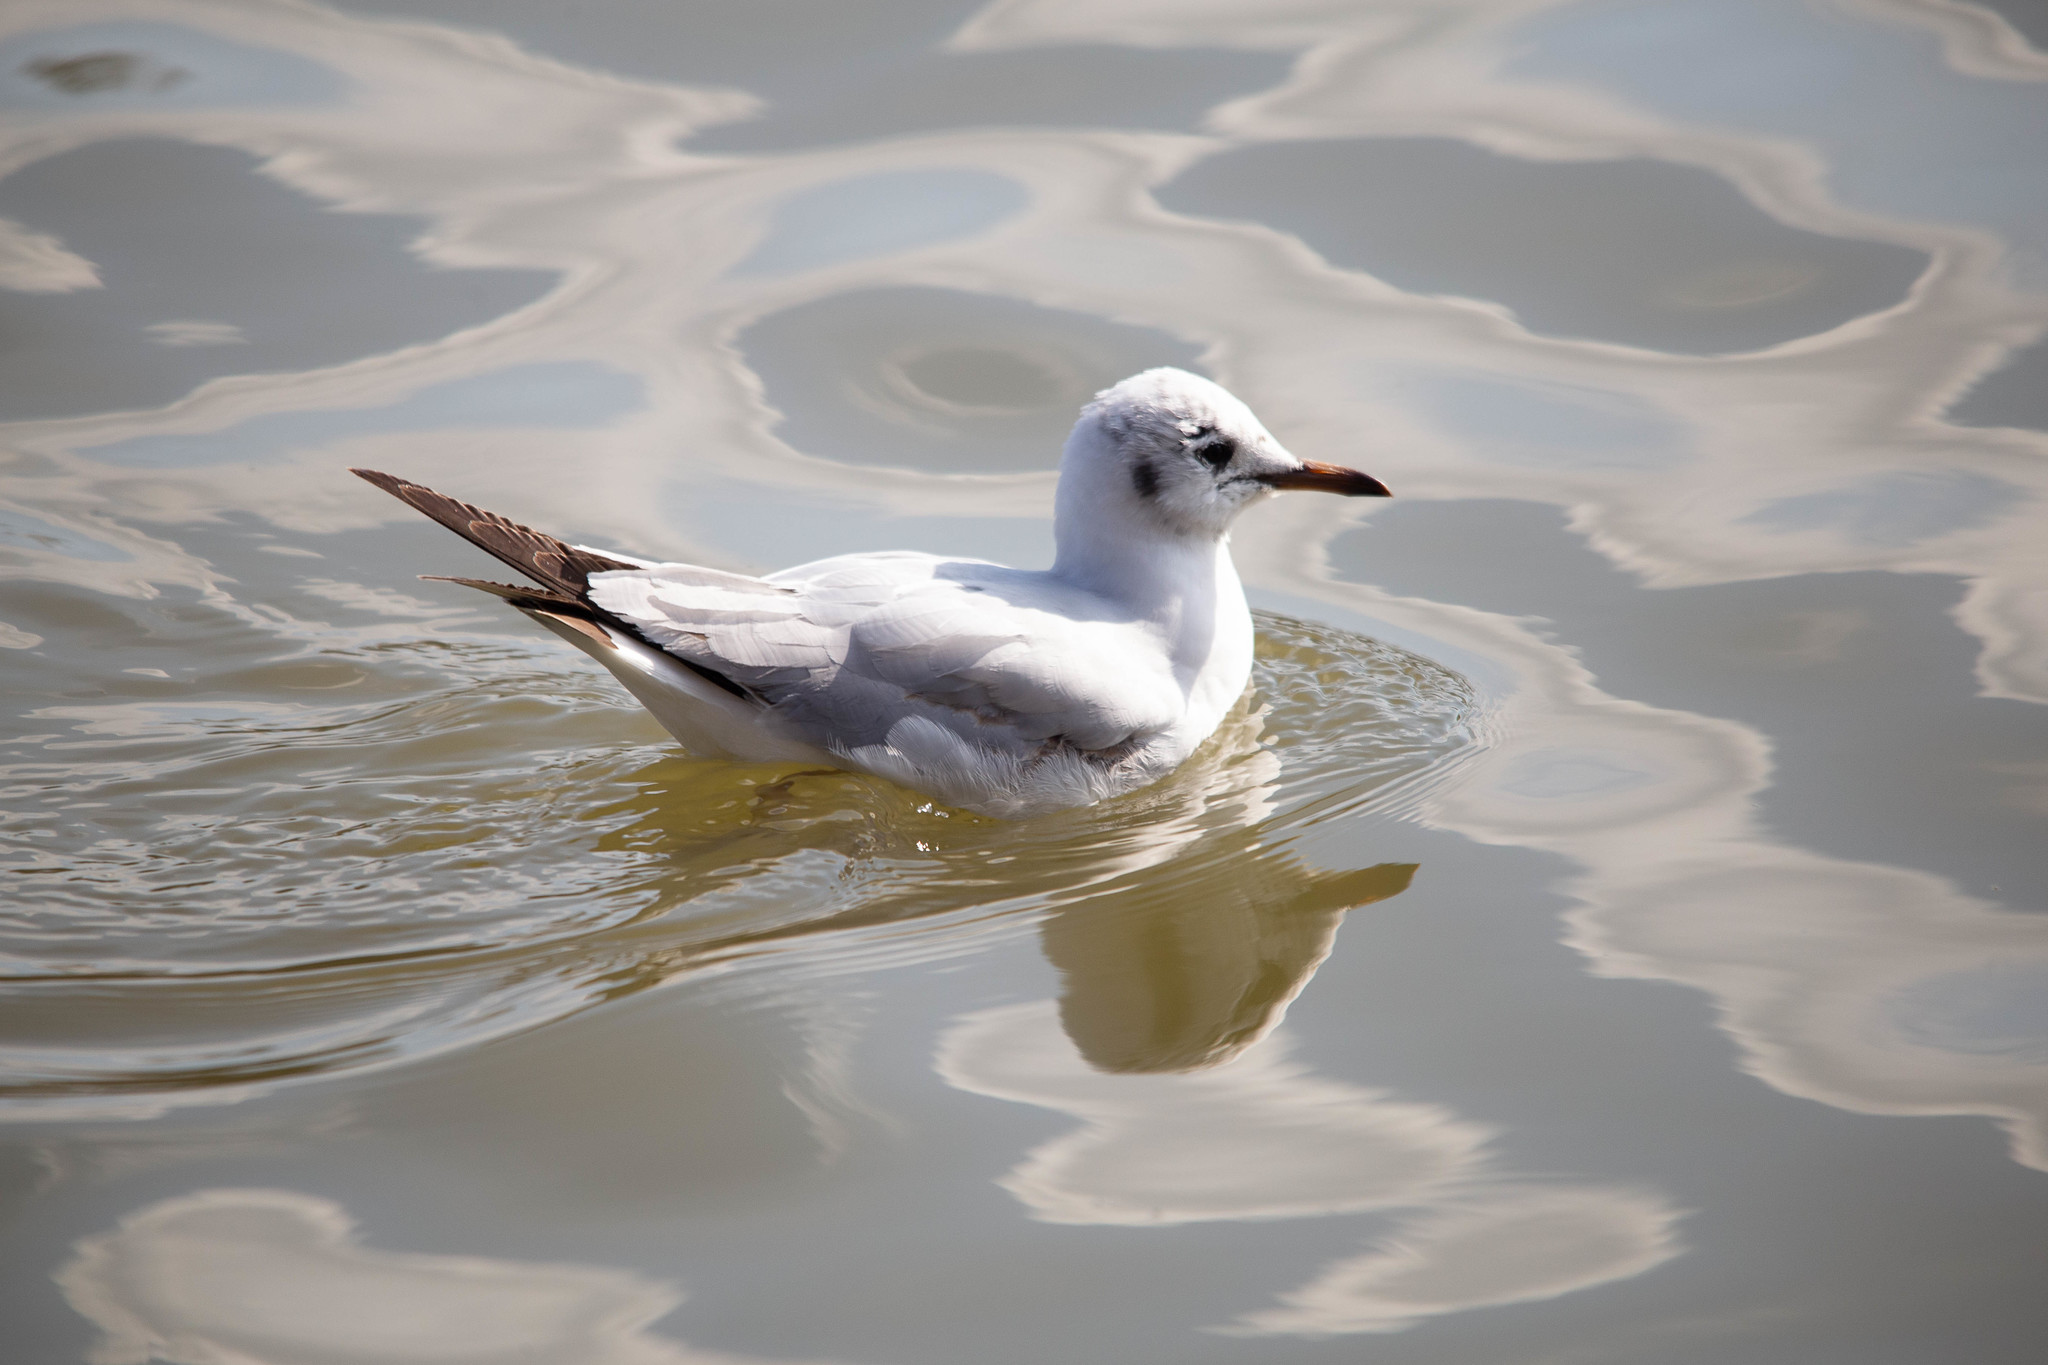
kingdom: Animalia
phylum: Chordata
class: Aves
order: Charadriiformes
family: Laridae
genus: Chroicocephalus
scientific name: Chroicocephalus ridibundus
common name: Black-headed gull
